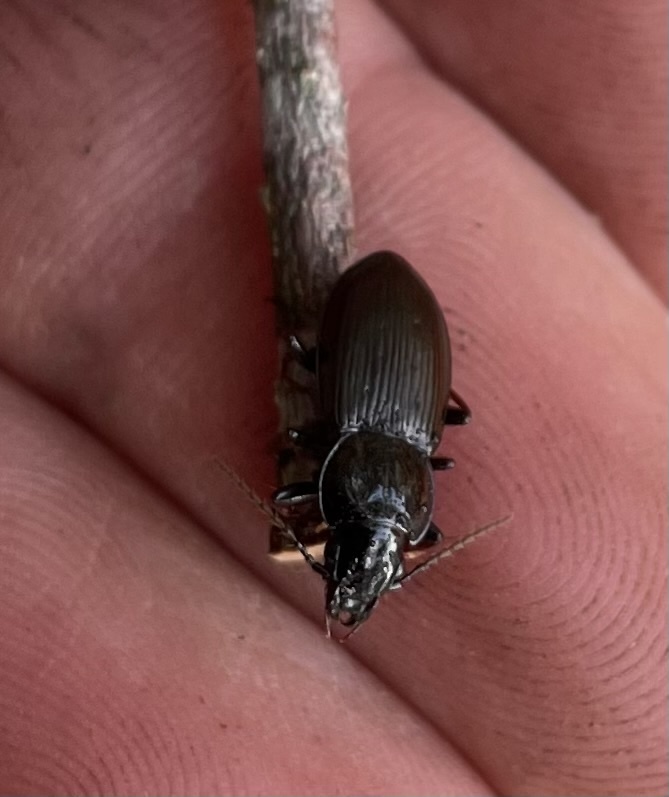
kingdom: Animalia
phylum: Arthropoda
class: Insecta
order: Coleoptera
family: Carabidae
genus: Pterostichus
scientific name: Pterostichus mutus
